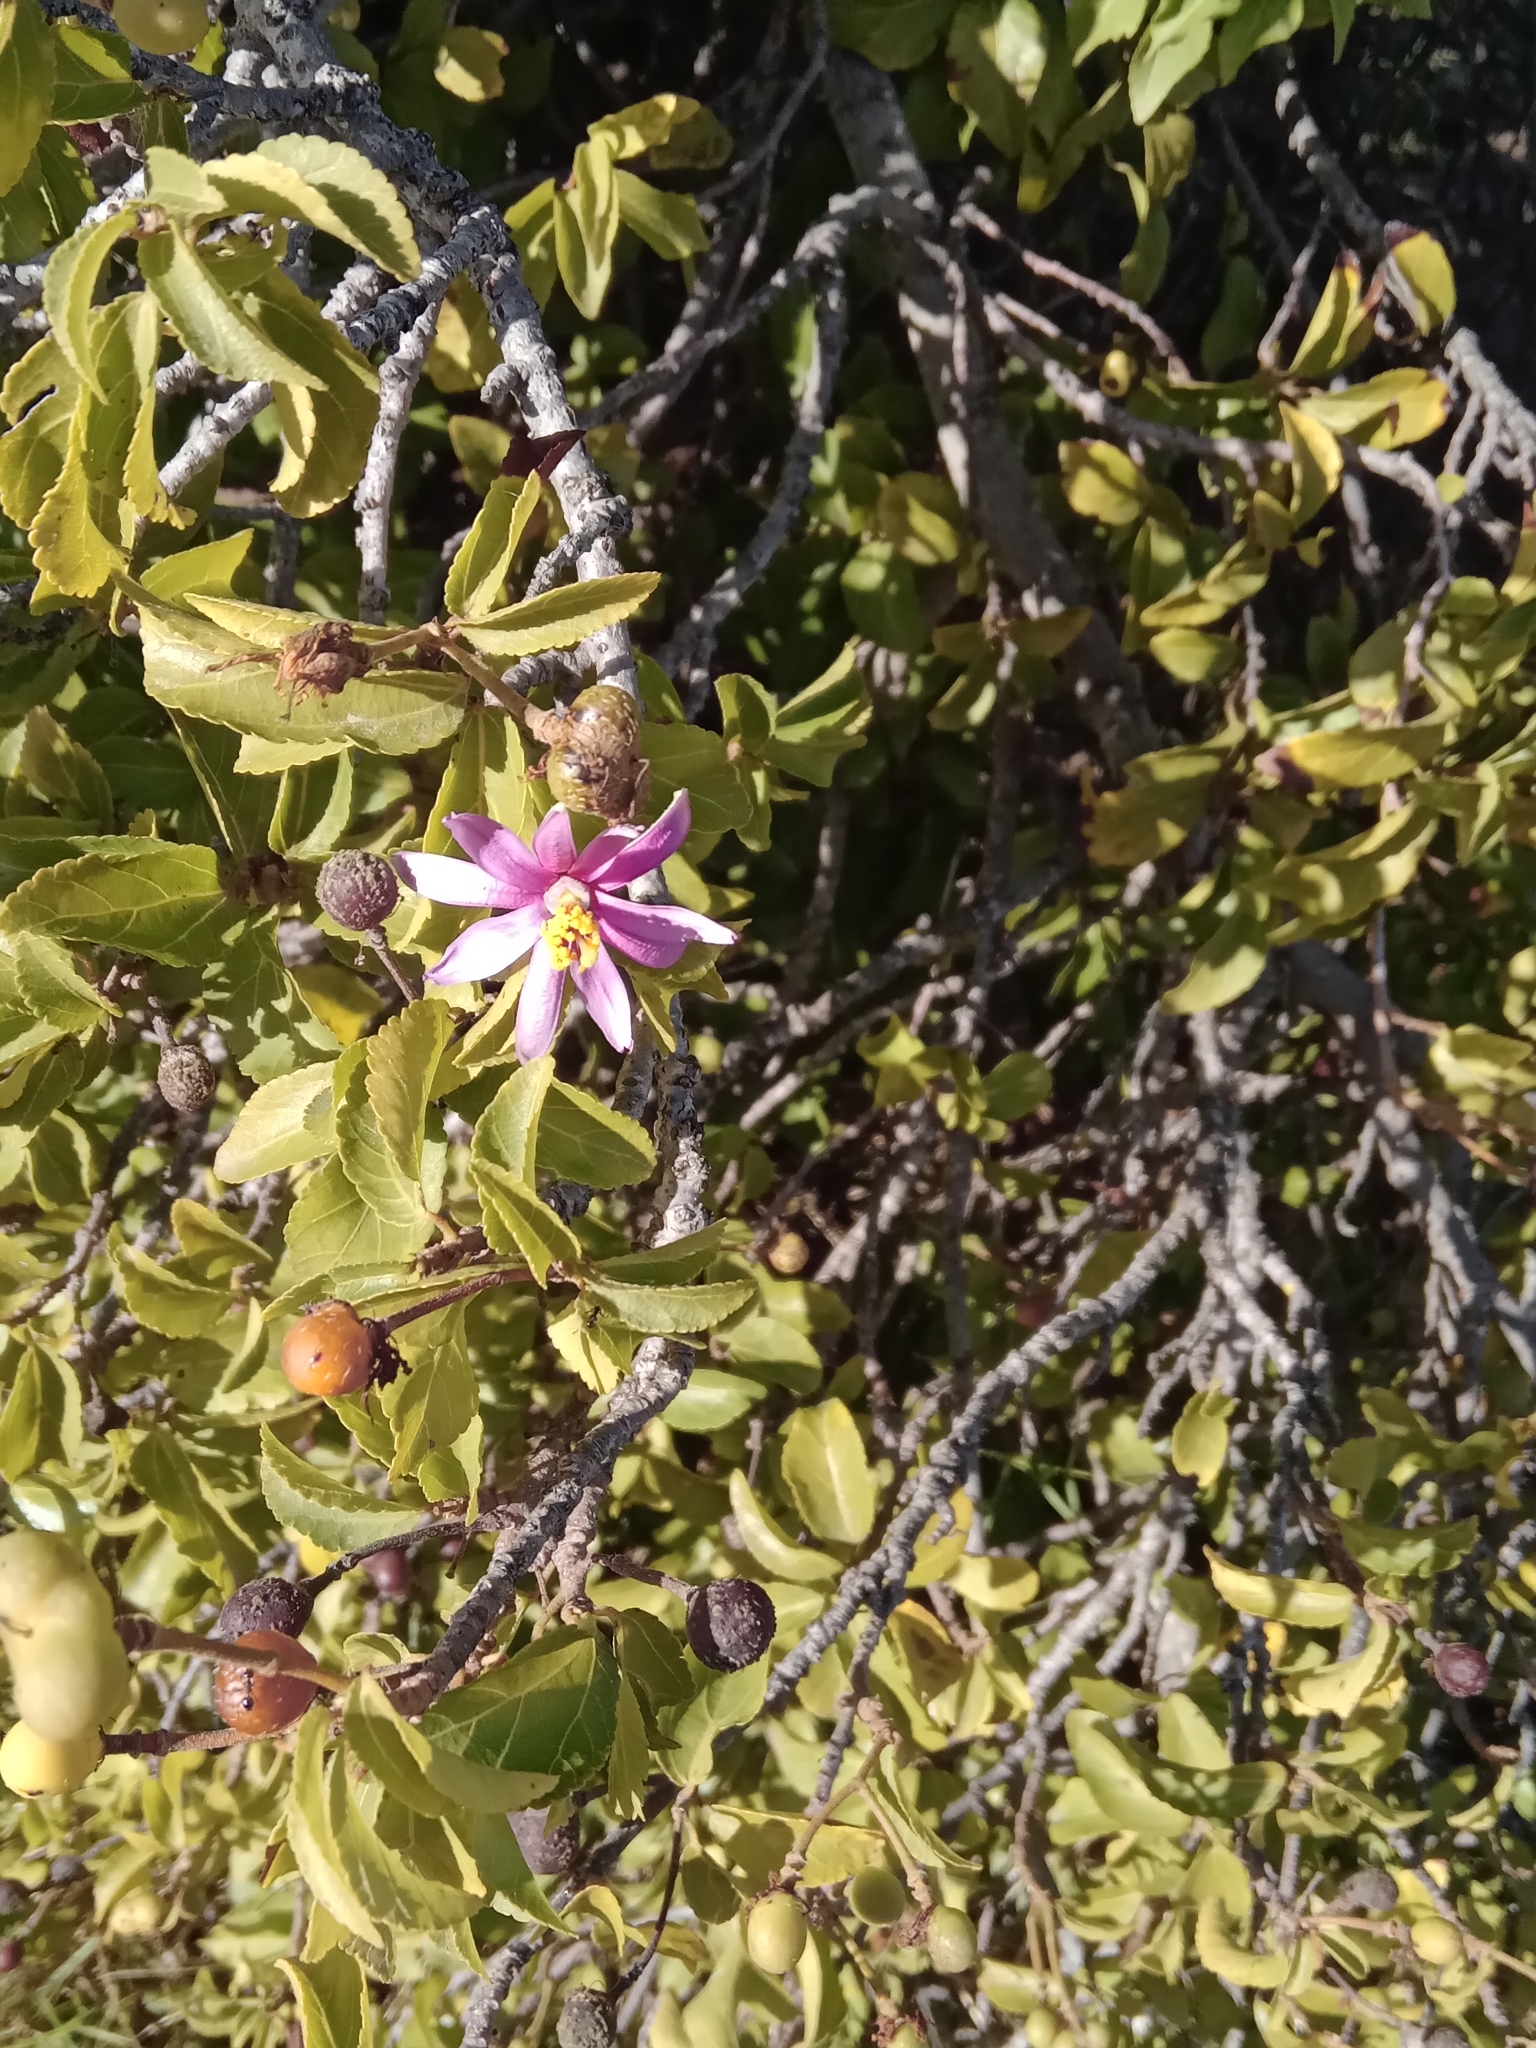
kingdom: Plantae
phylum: Tracheophyta
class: Magnoliopsida
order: Malvales
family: Malvaceae
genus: Grewia
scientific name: Grewia occidentalis
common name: Crossberry
